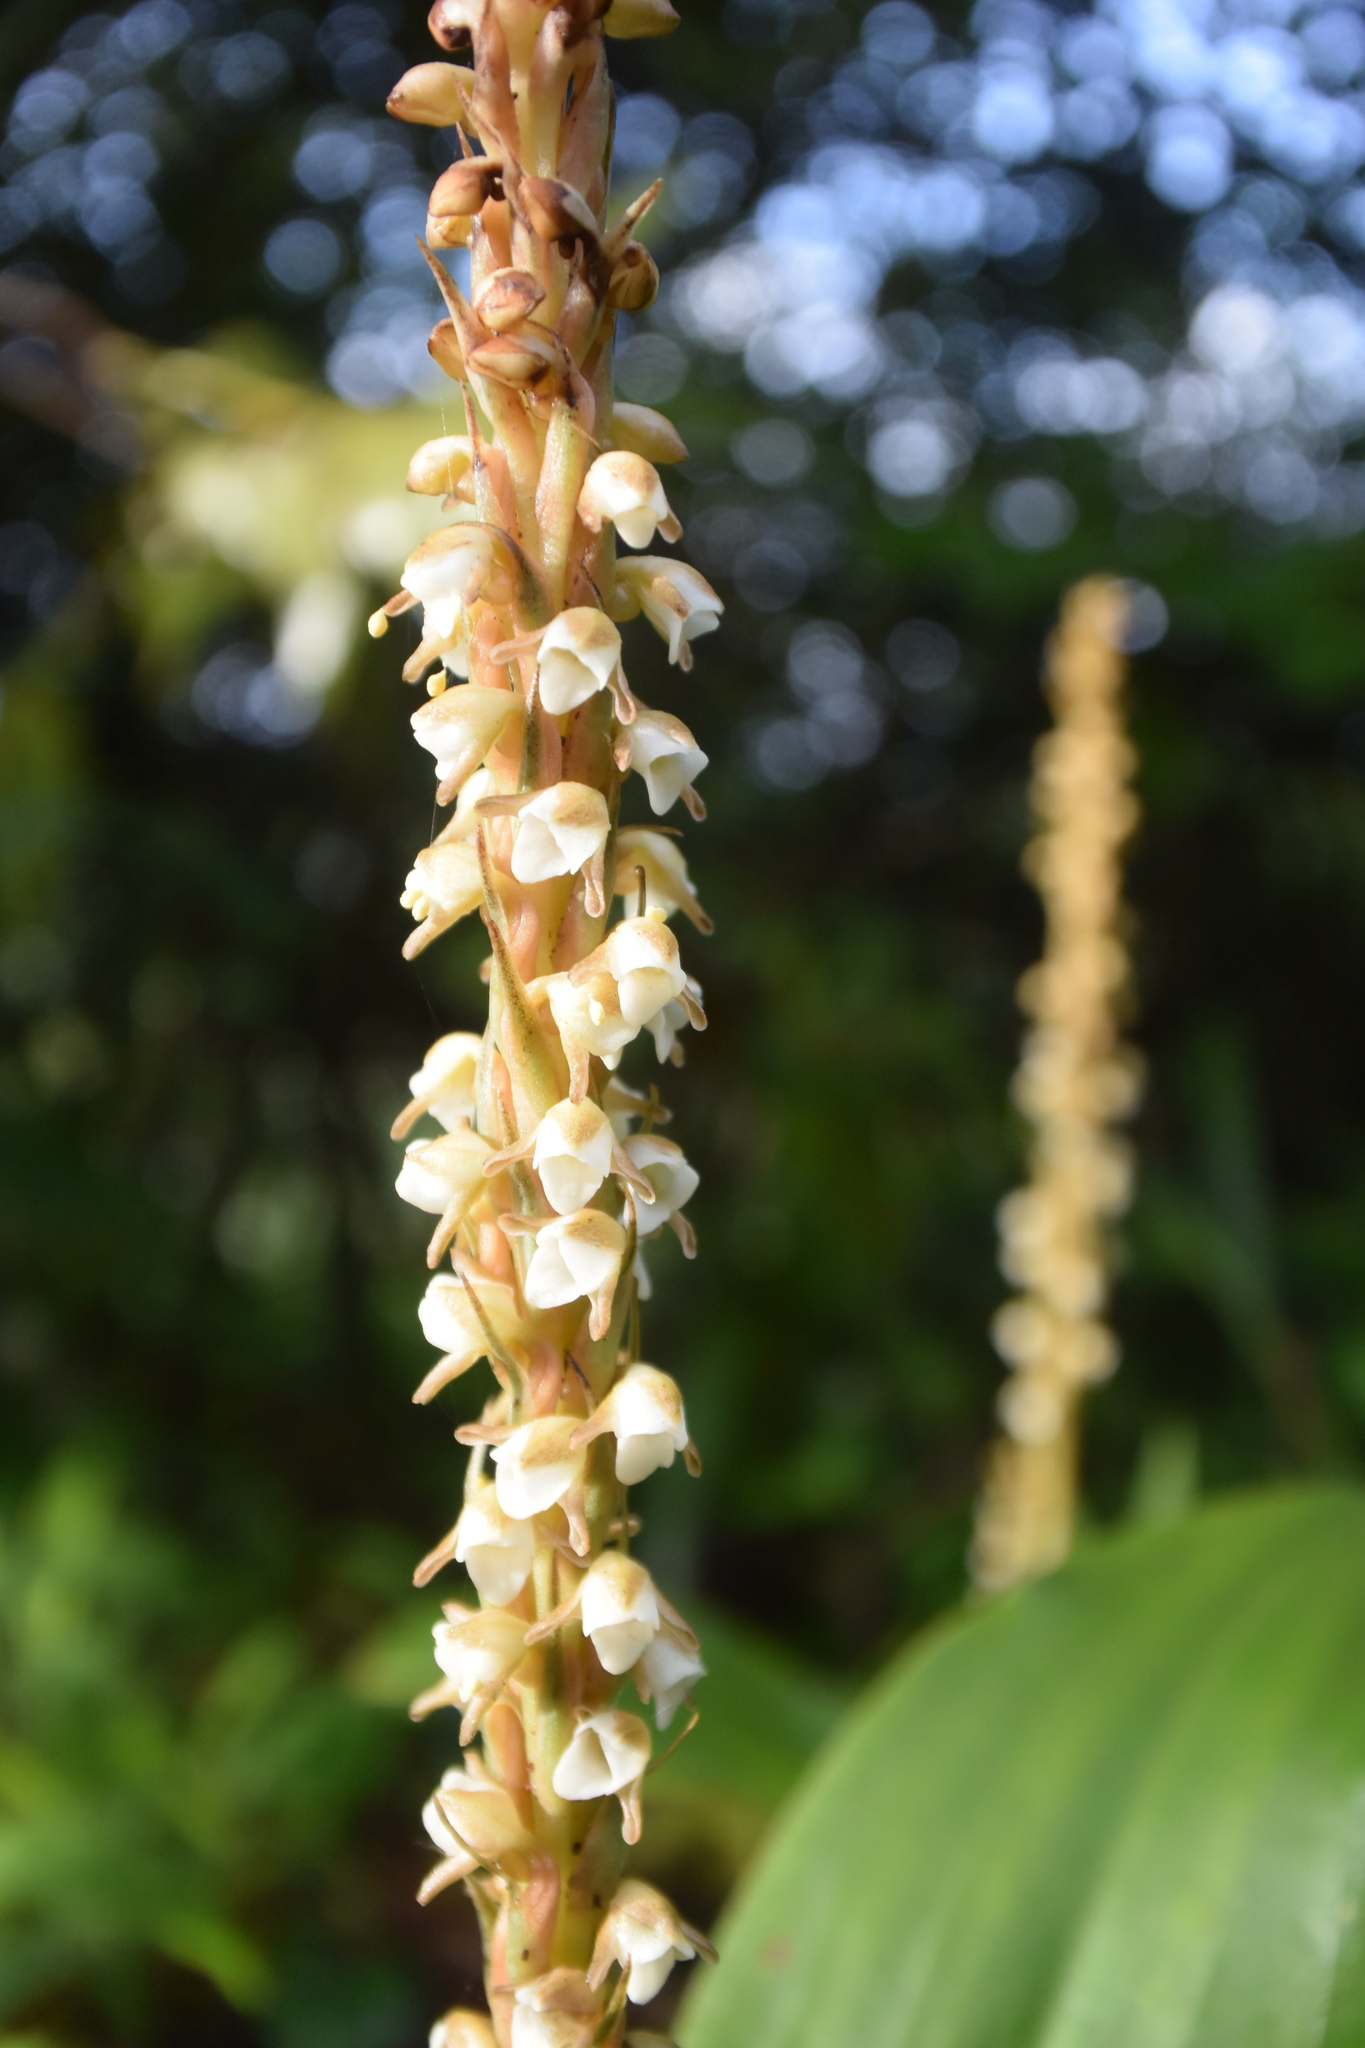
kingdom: Plantae
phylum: Tracheophyta
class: Liliopsida
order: Asparagales
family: Orchidaceae
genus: Peristylus
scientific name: Peristylus plantagineus
